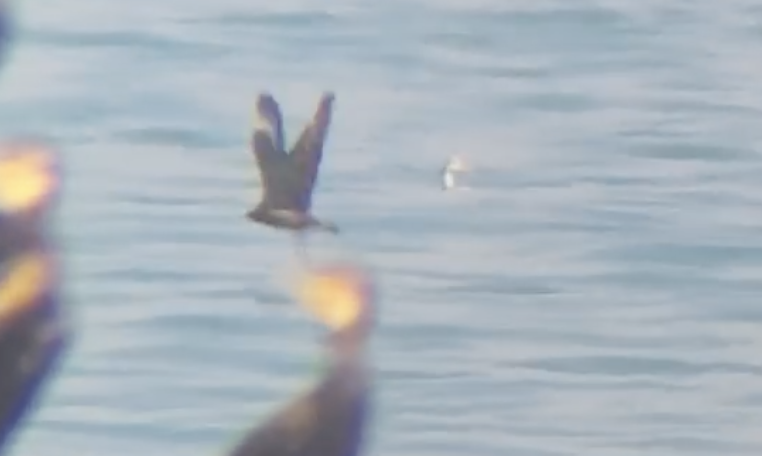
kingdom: Animalia
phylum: Chordata
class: Aves
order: Charadriiformes
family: Stercorariidae
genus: Stercorarius
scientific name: Stercorarius parasiticus
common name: Parasitic jaeger
